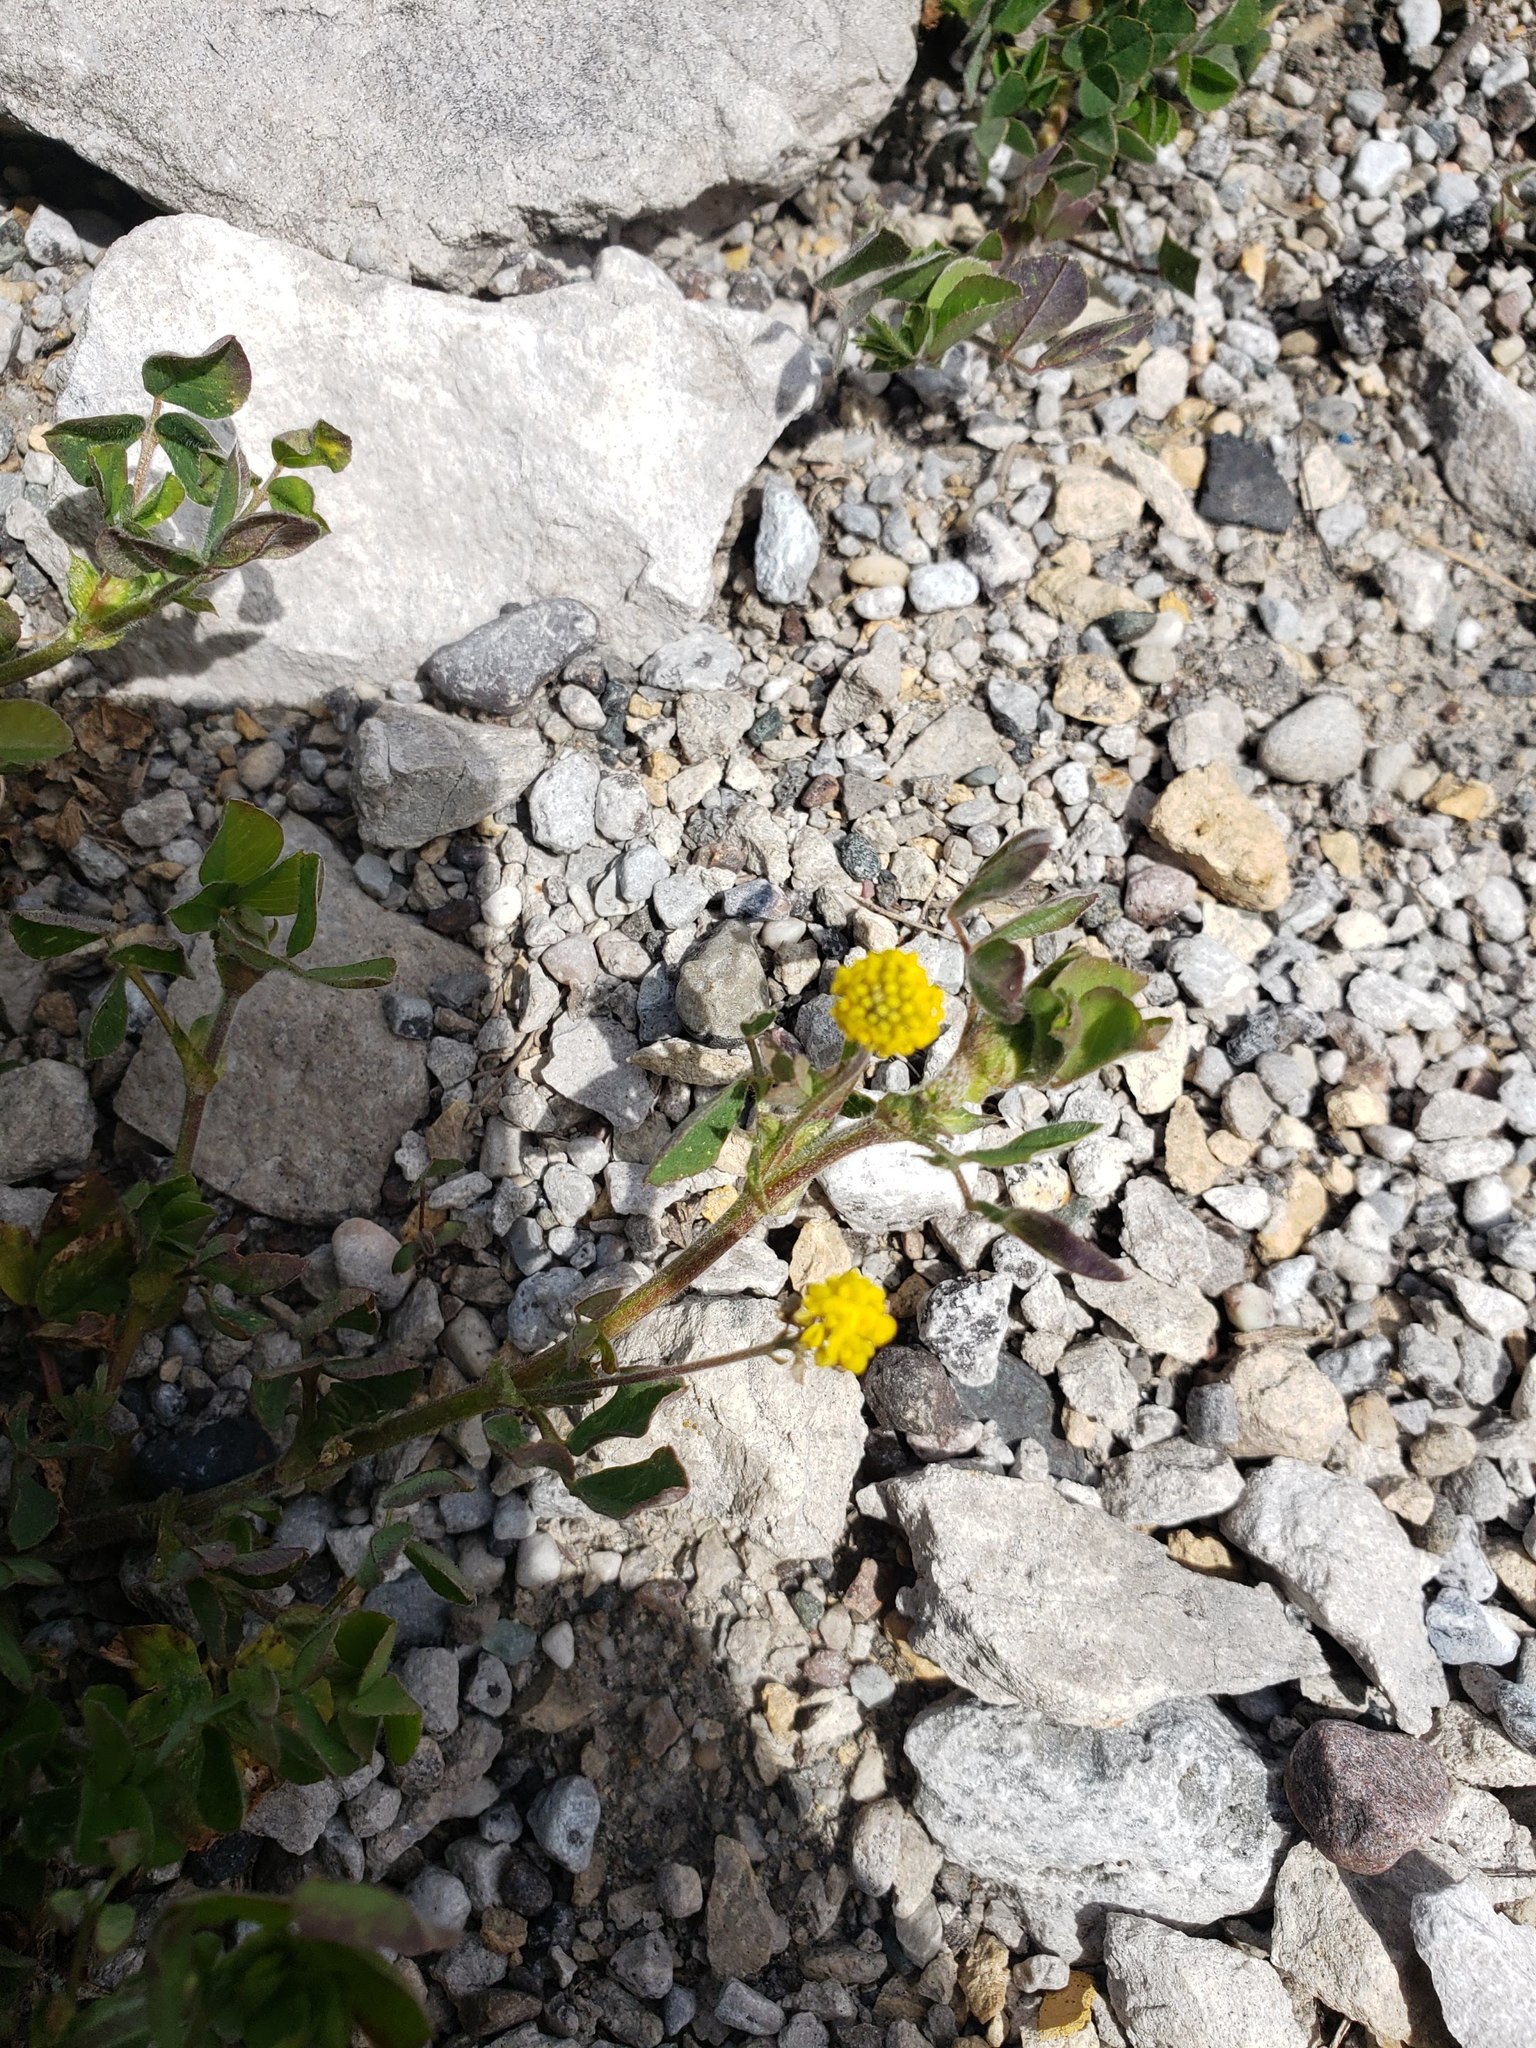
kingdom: Plantae
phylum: Tracheophyta
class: Magnoliopsida
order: Fabales
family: Fabaceae
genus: Medicago
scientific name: Medicago lupulina
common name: Black medick
